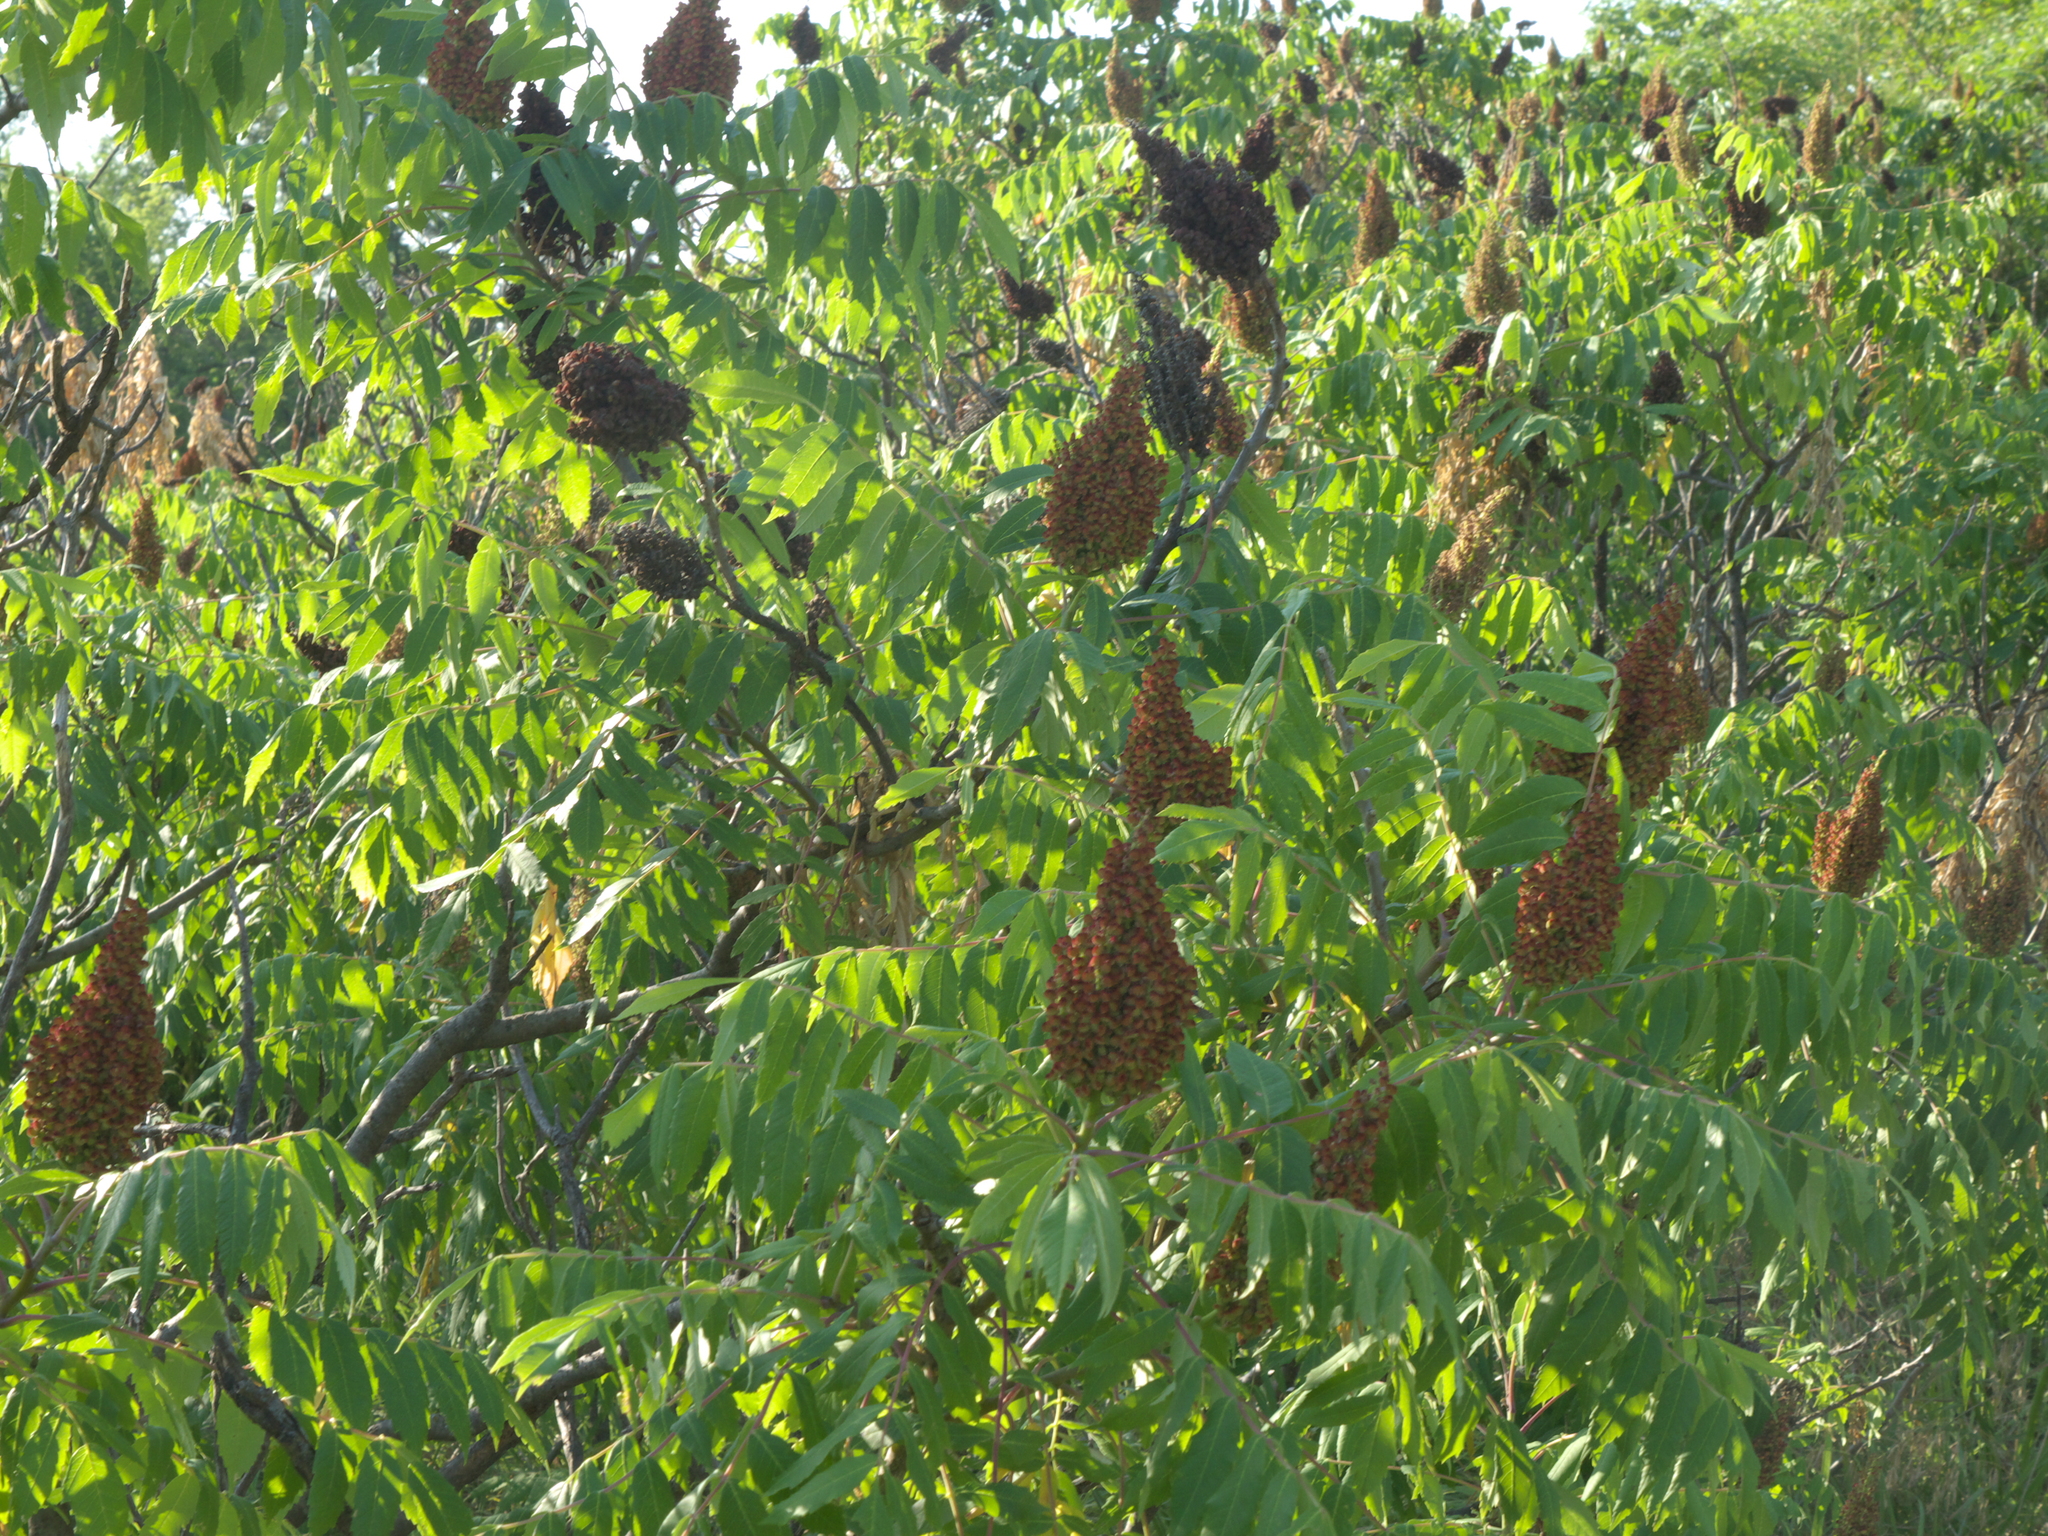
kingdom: Plantae
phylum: Tracheophyta
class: Magnoliopsida
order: Sapindales
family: Anacardiaceae
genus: Rhus
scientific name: Rhus glabra
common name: Scarlet sumac
